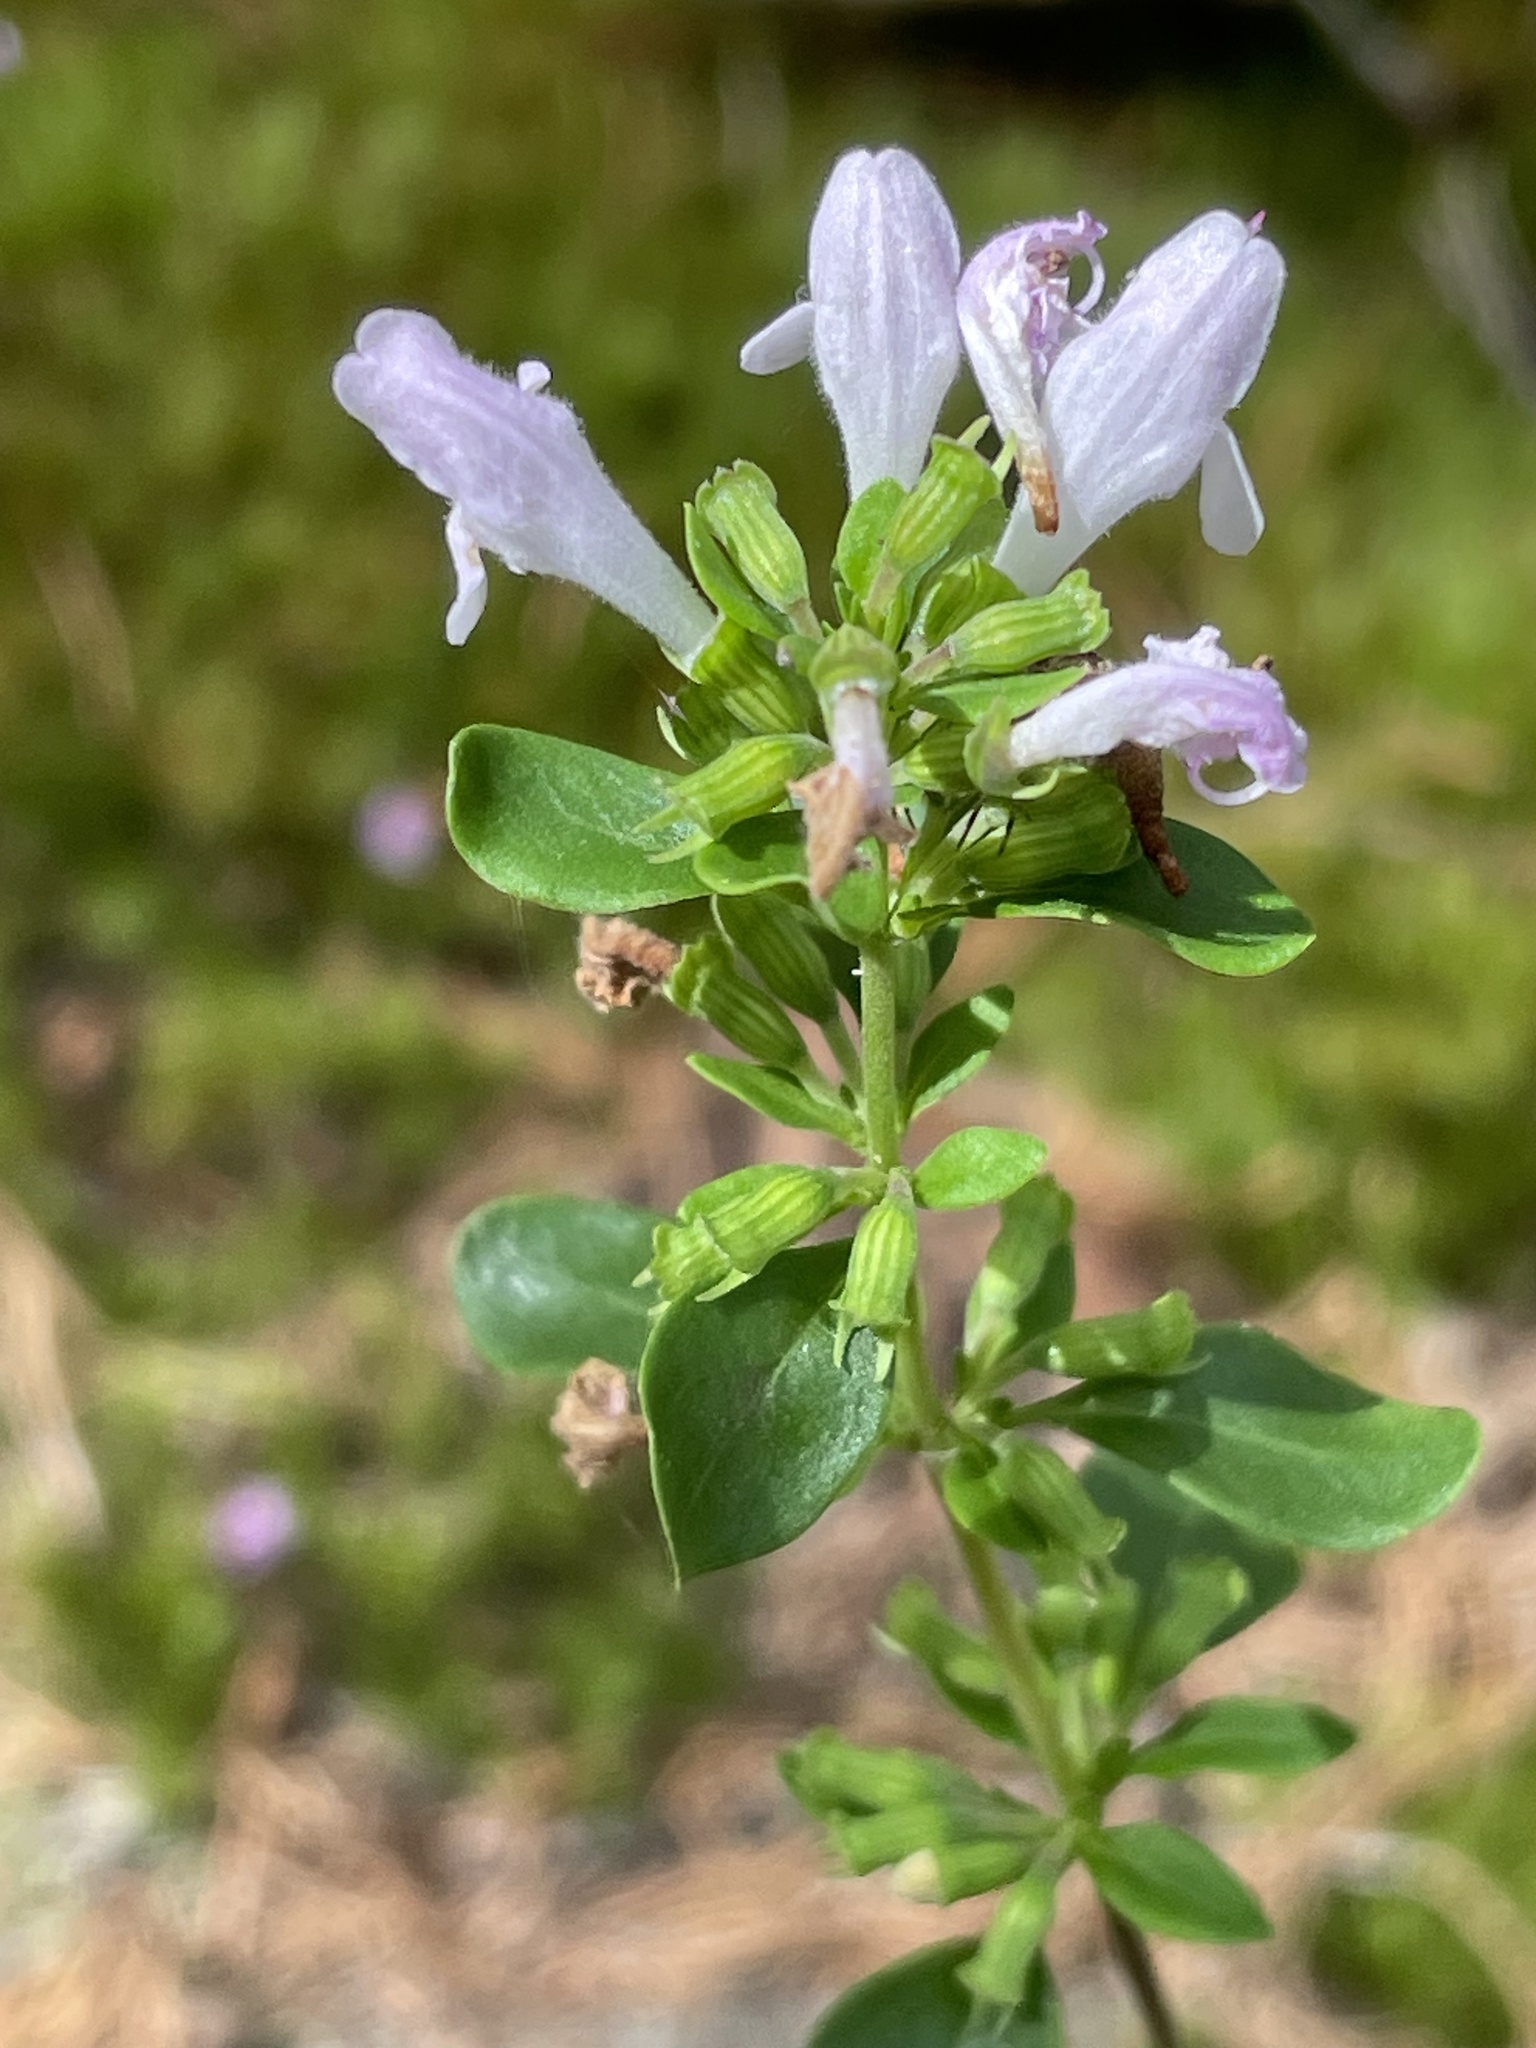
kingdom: Plantae
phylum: Tracheophyta
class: Magnoliopsida
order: Lamiales
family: Lamiaceae
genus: Clinopodium
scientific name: Clinopodium carolinianum
